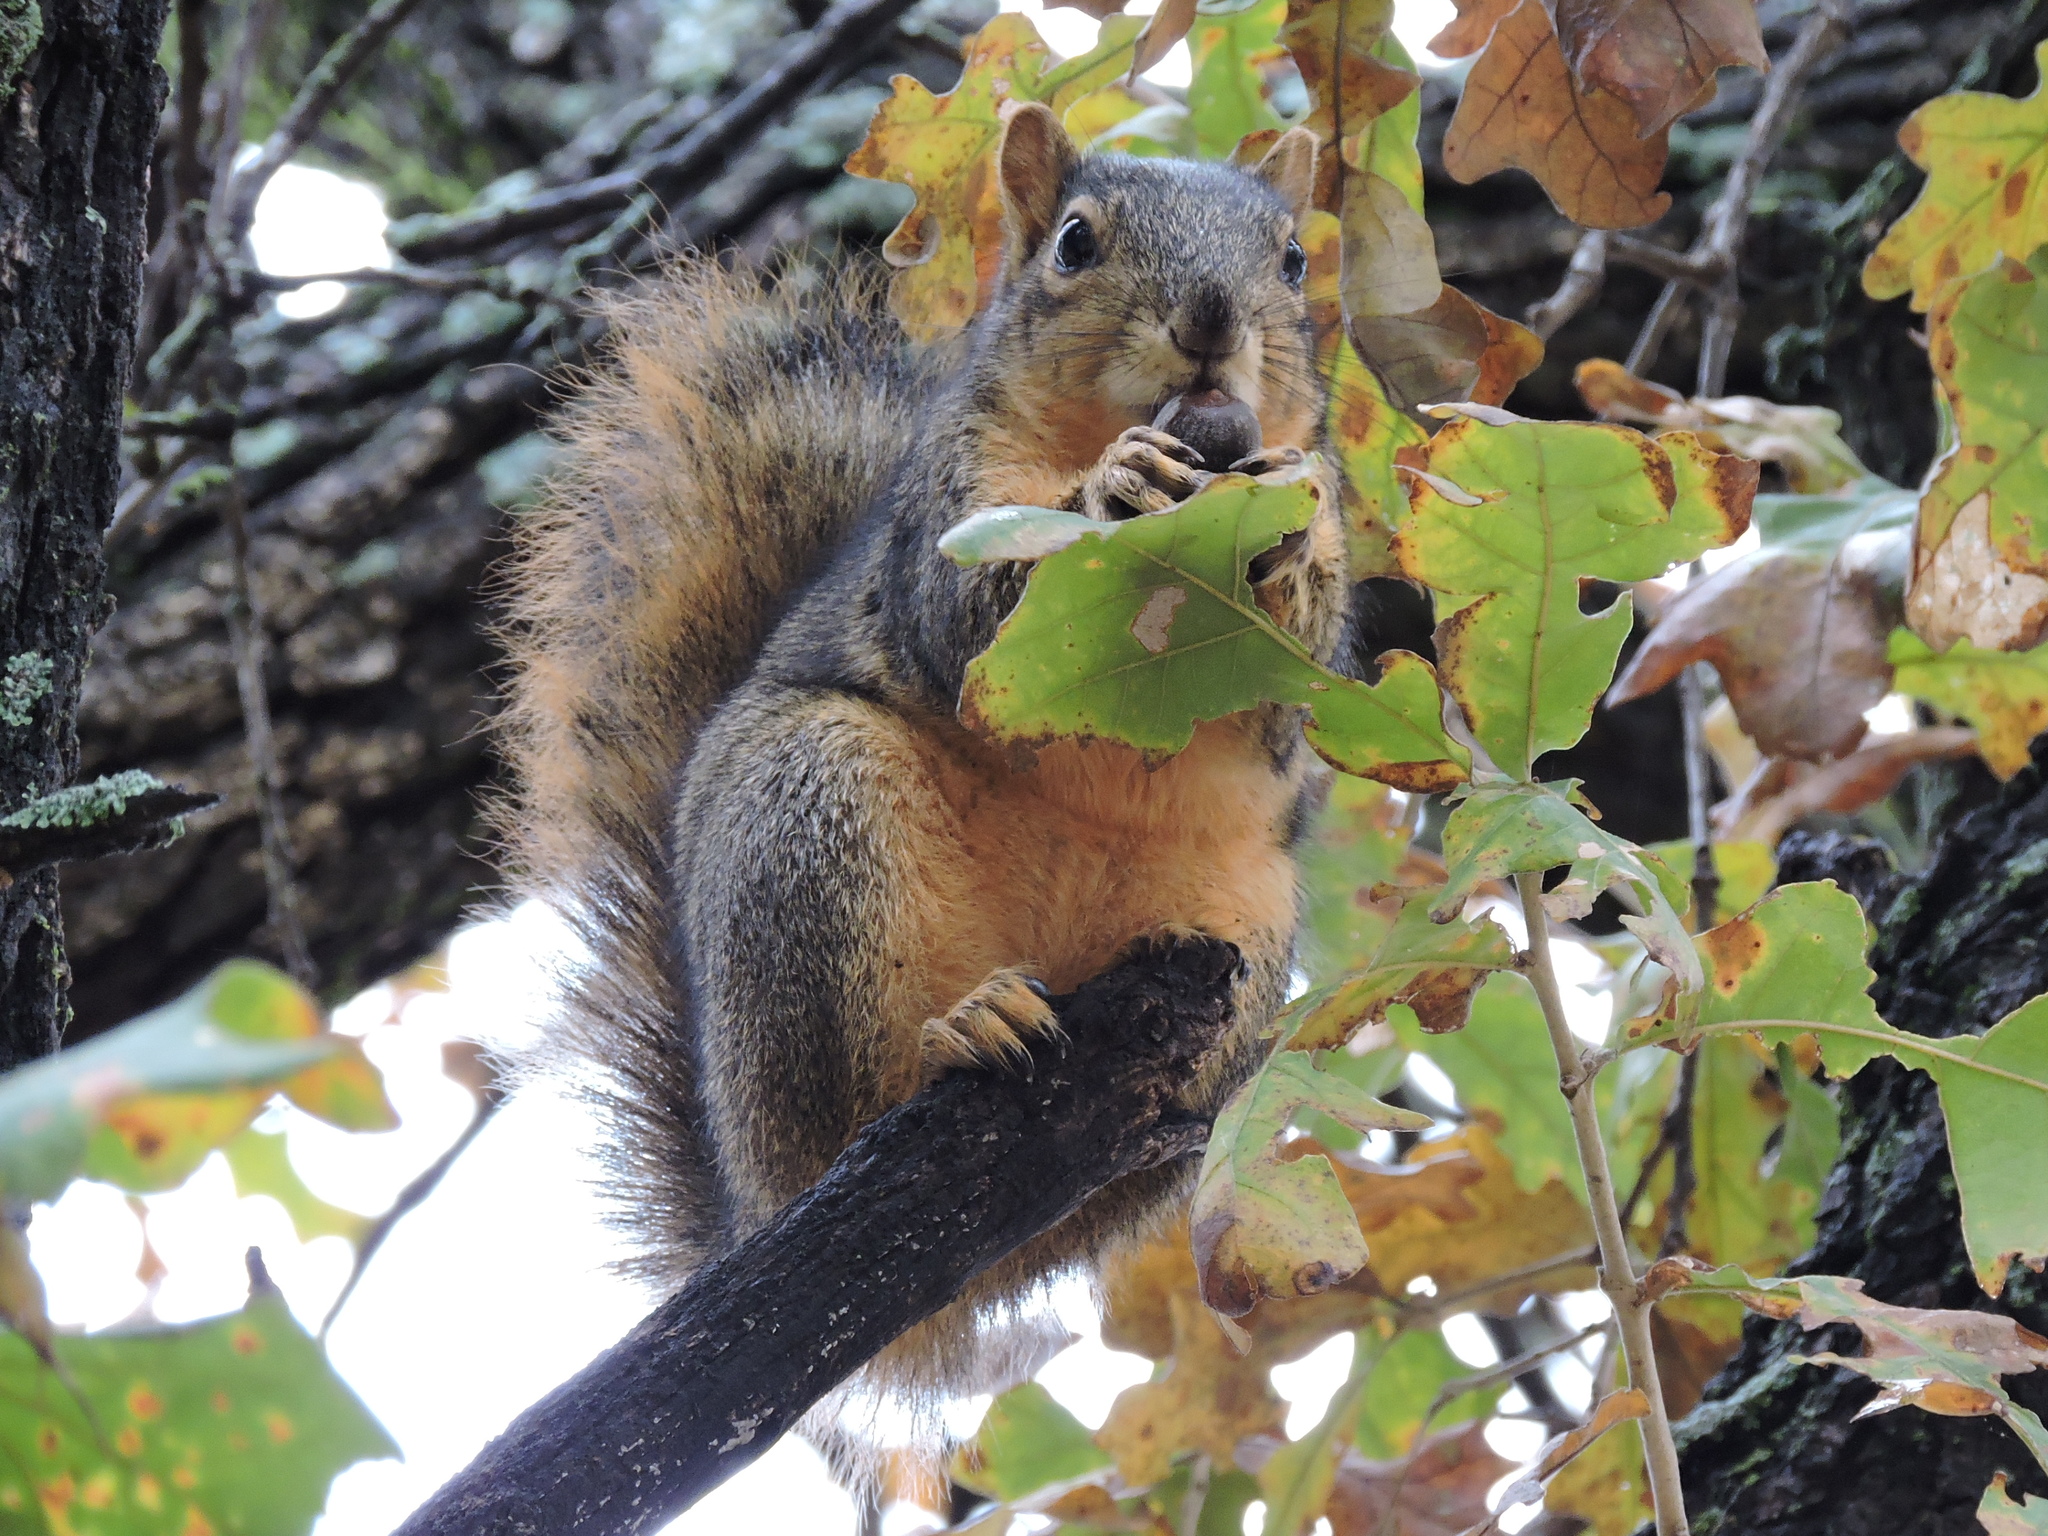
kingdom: Animalia
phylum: Chordata
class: Mammalia
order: Rodentia
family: Sciuridae
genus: Sciurus
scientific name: Sciurus niger
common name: Fox squirrel
